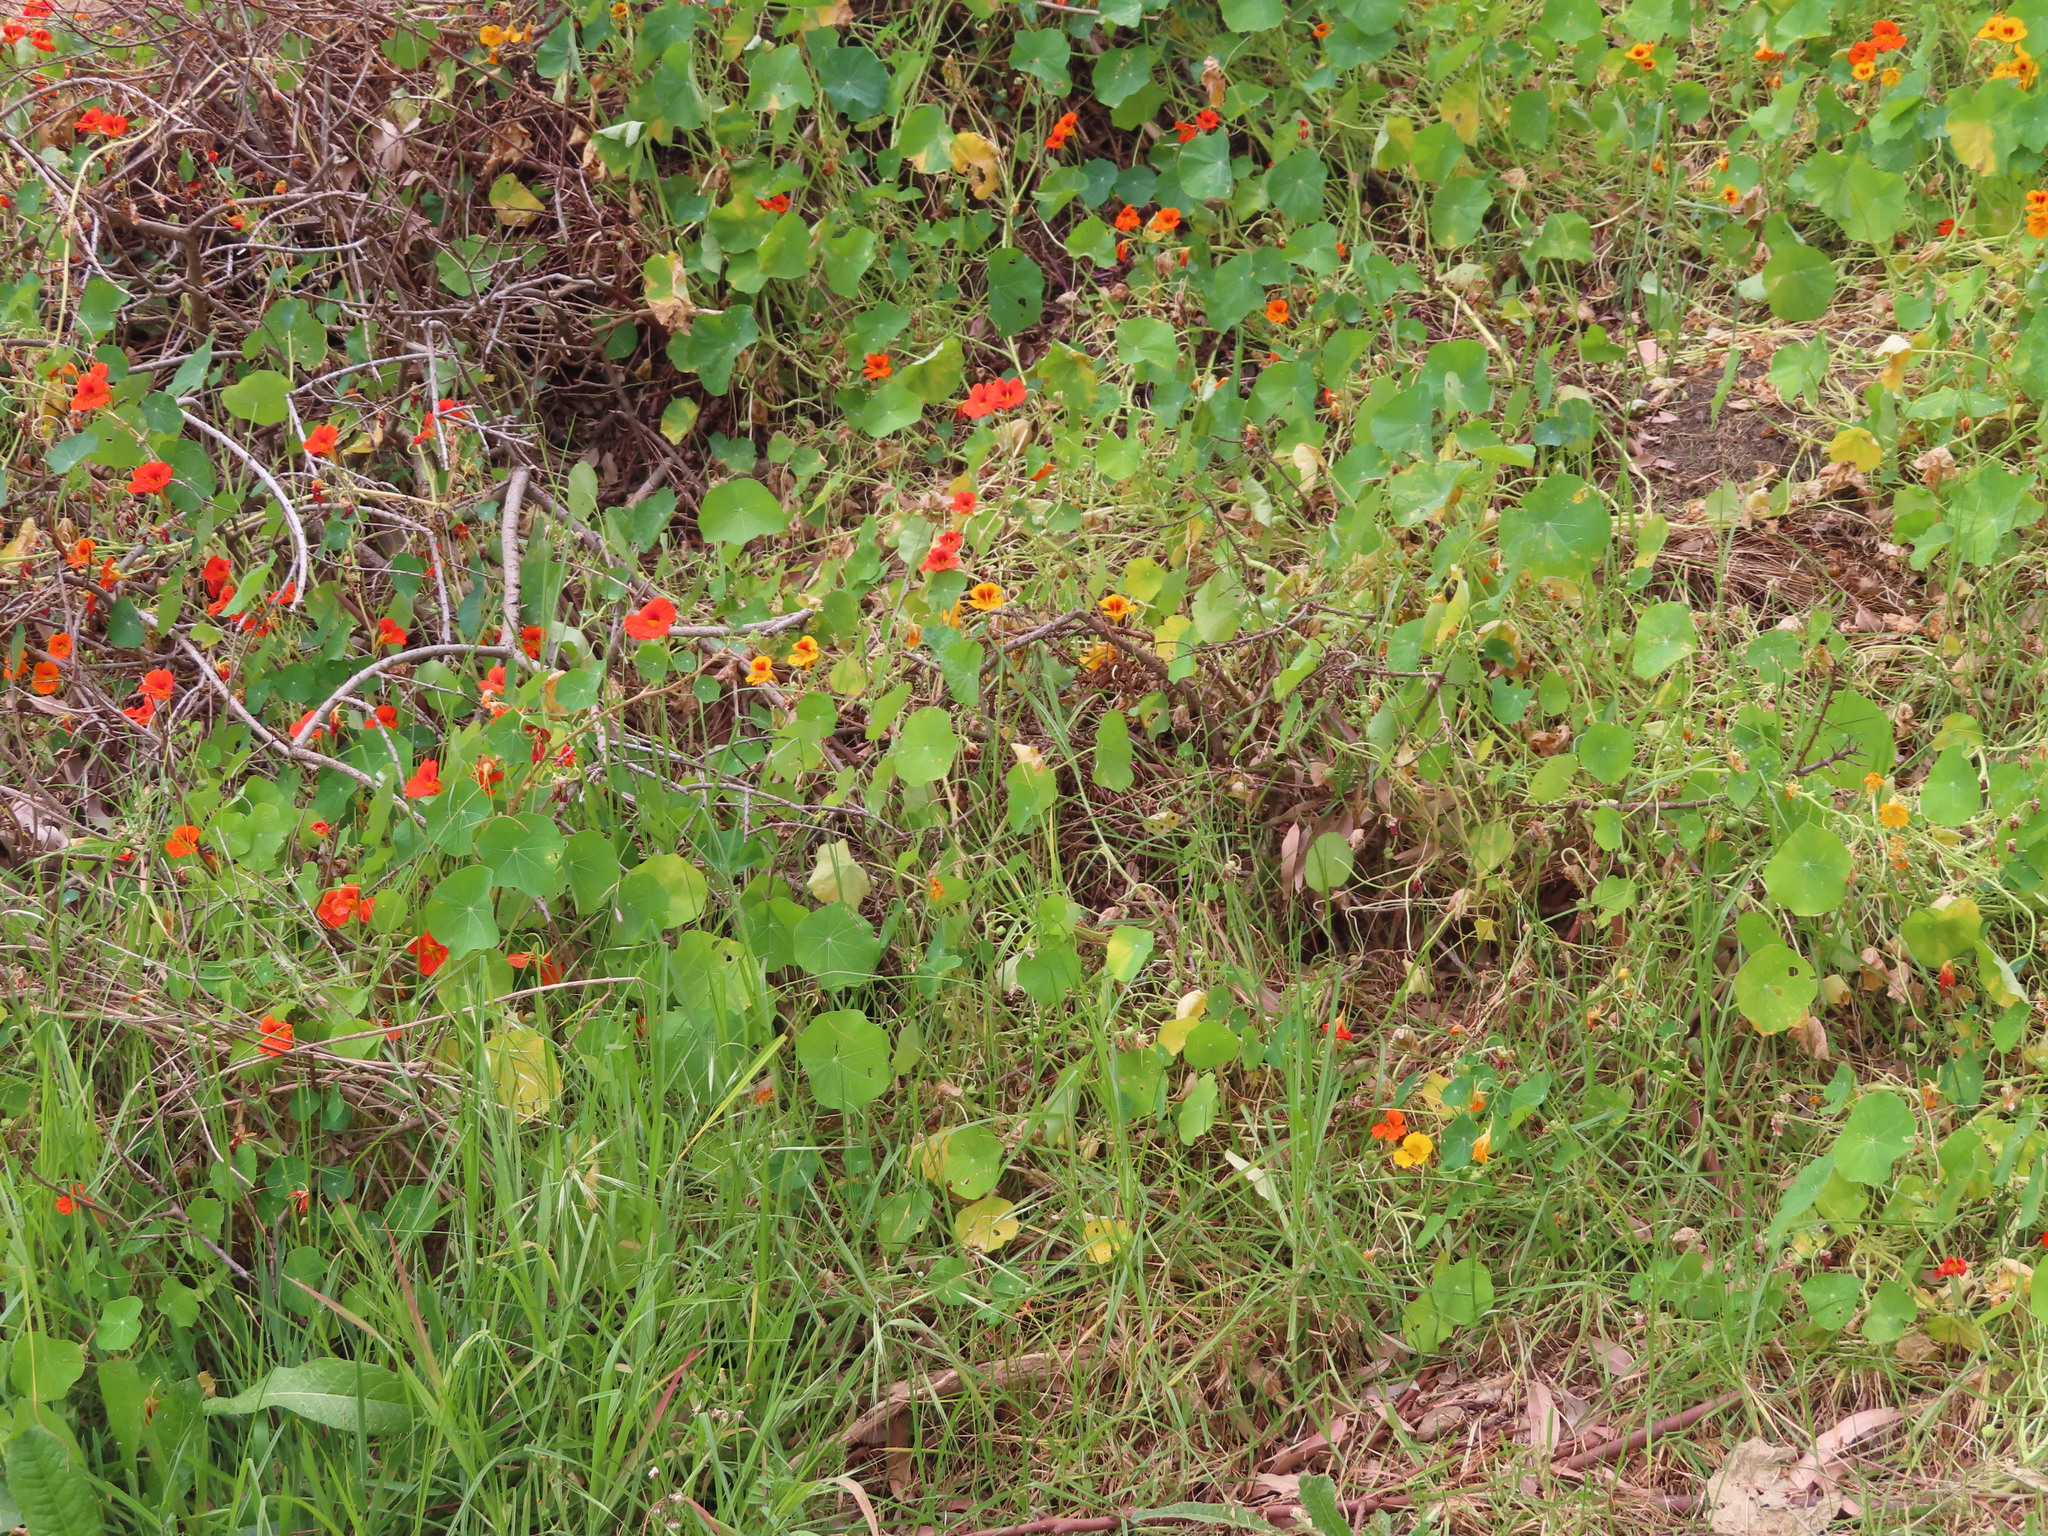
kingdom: Plantae
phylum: Tracheophyta
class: Magnoliopsida
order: Brassicales
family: Tropaeolaceae
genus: Tropaeolum
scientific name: Tropaeolum majus
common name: Nasturtium
